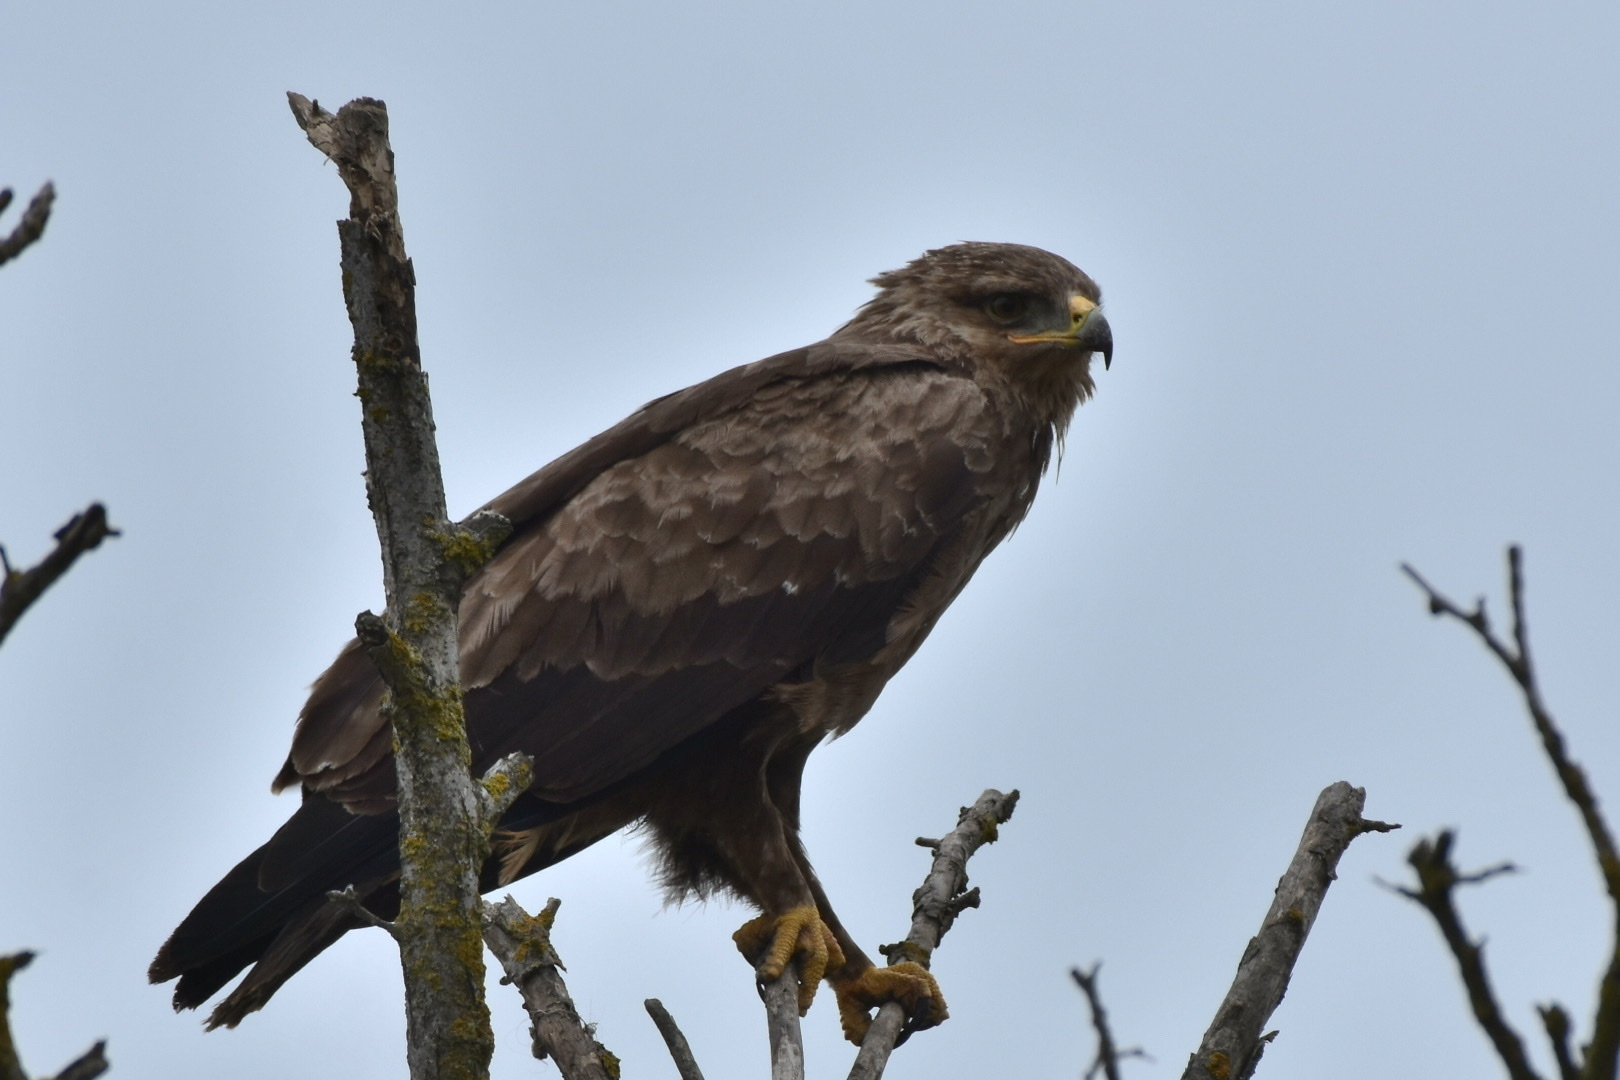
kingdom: Animalia
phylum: Chordata
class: Aves
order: Accipitriformes
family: Accipitridae
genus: Aquila
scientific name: Aquila pomarina
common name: Lesser spotted eagle
